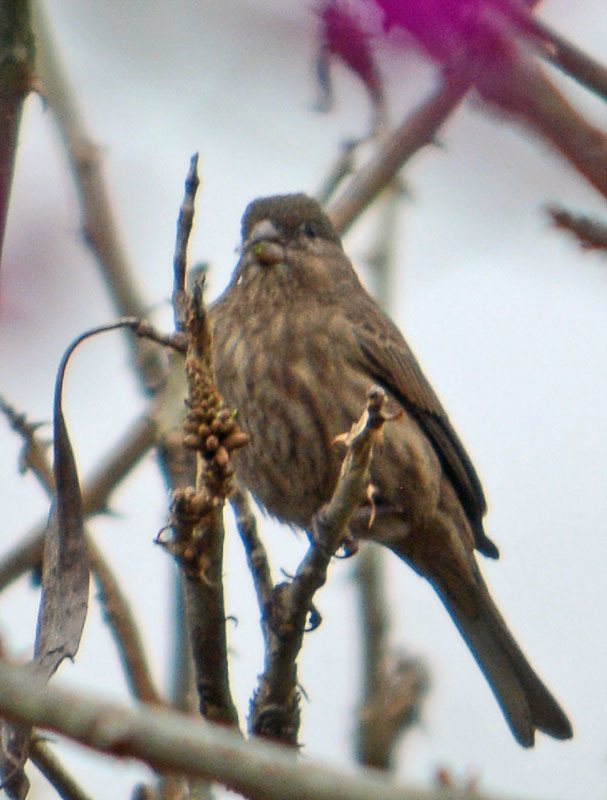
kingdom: Animalia
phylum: Chordata
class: Aves
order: Passeriformes
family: Fringillidae
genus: Haemorhous
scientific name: Haemorhous mexicanus
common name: House finch
